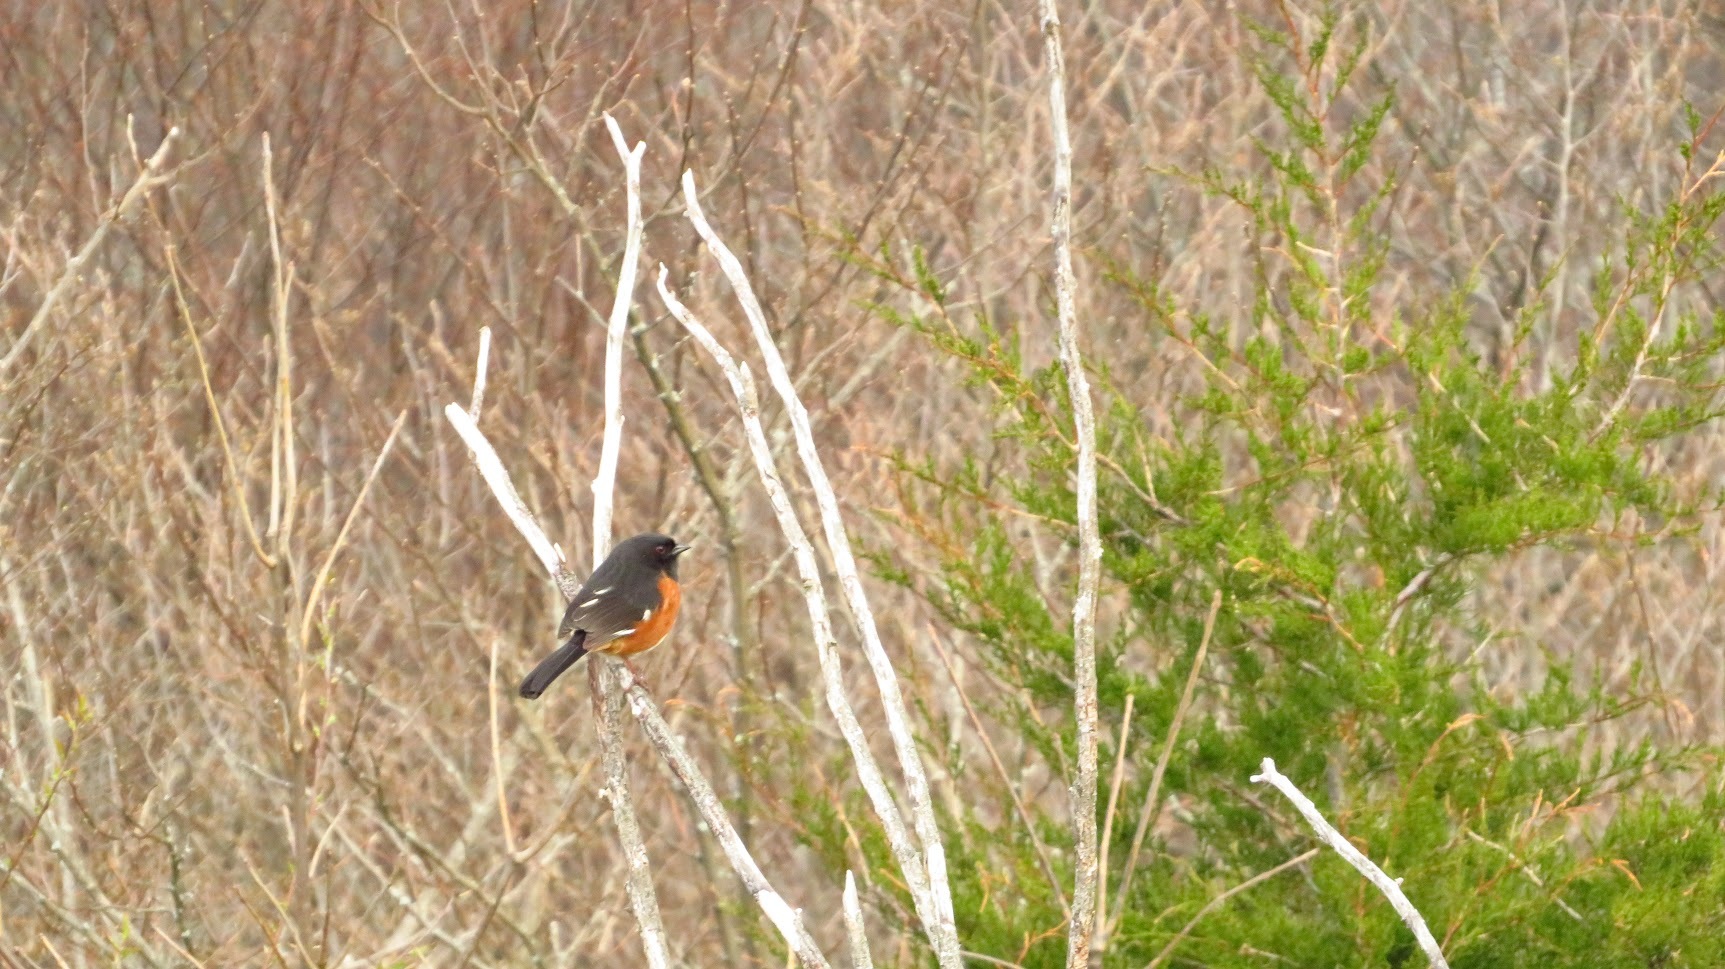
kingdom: Animalia
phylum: Chordata
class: Aves
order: Passeriformes
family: Passerellidae
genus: Pipilo
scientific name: Pipilo erythrophthalmus
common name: Eastern towhee
